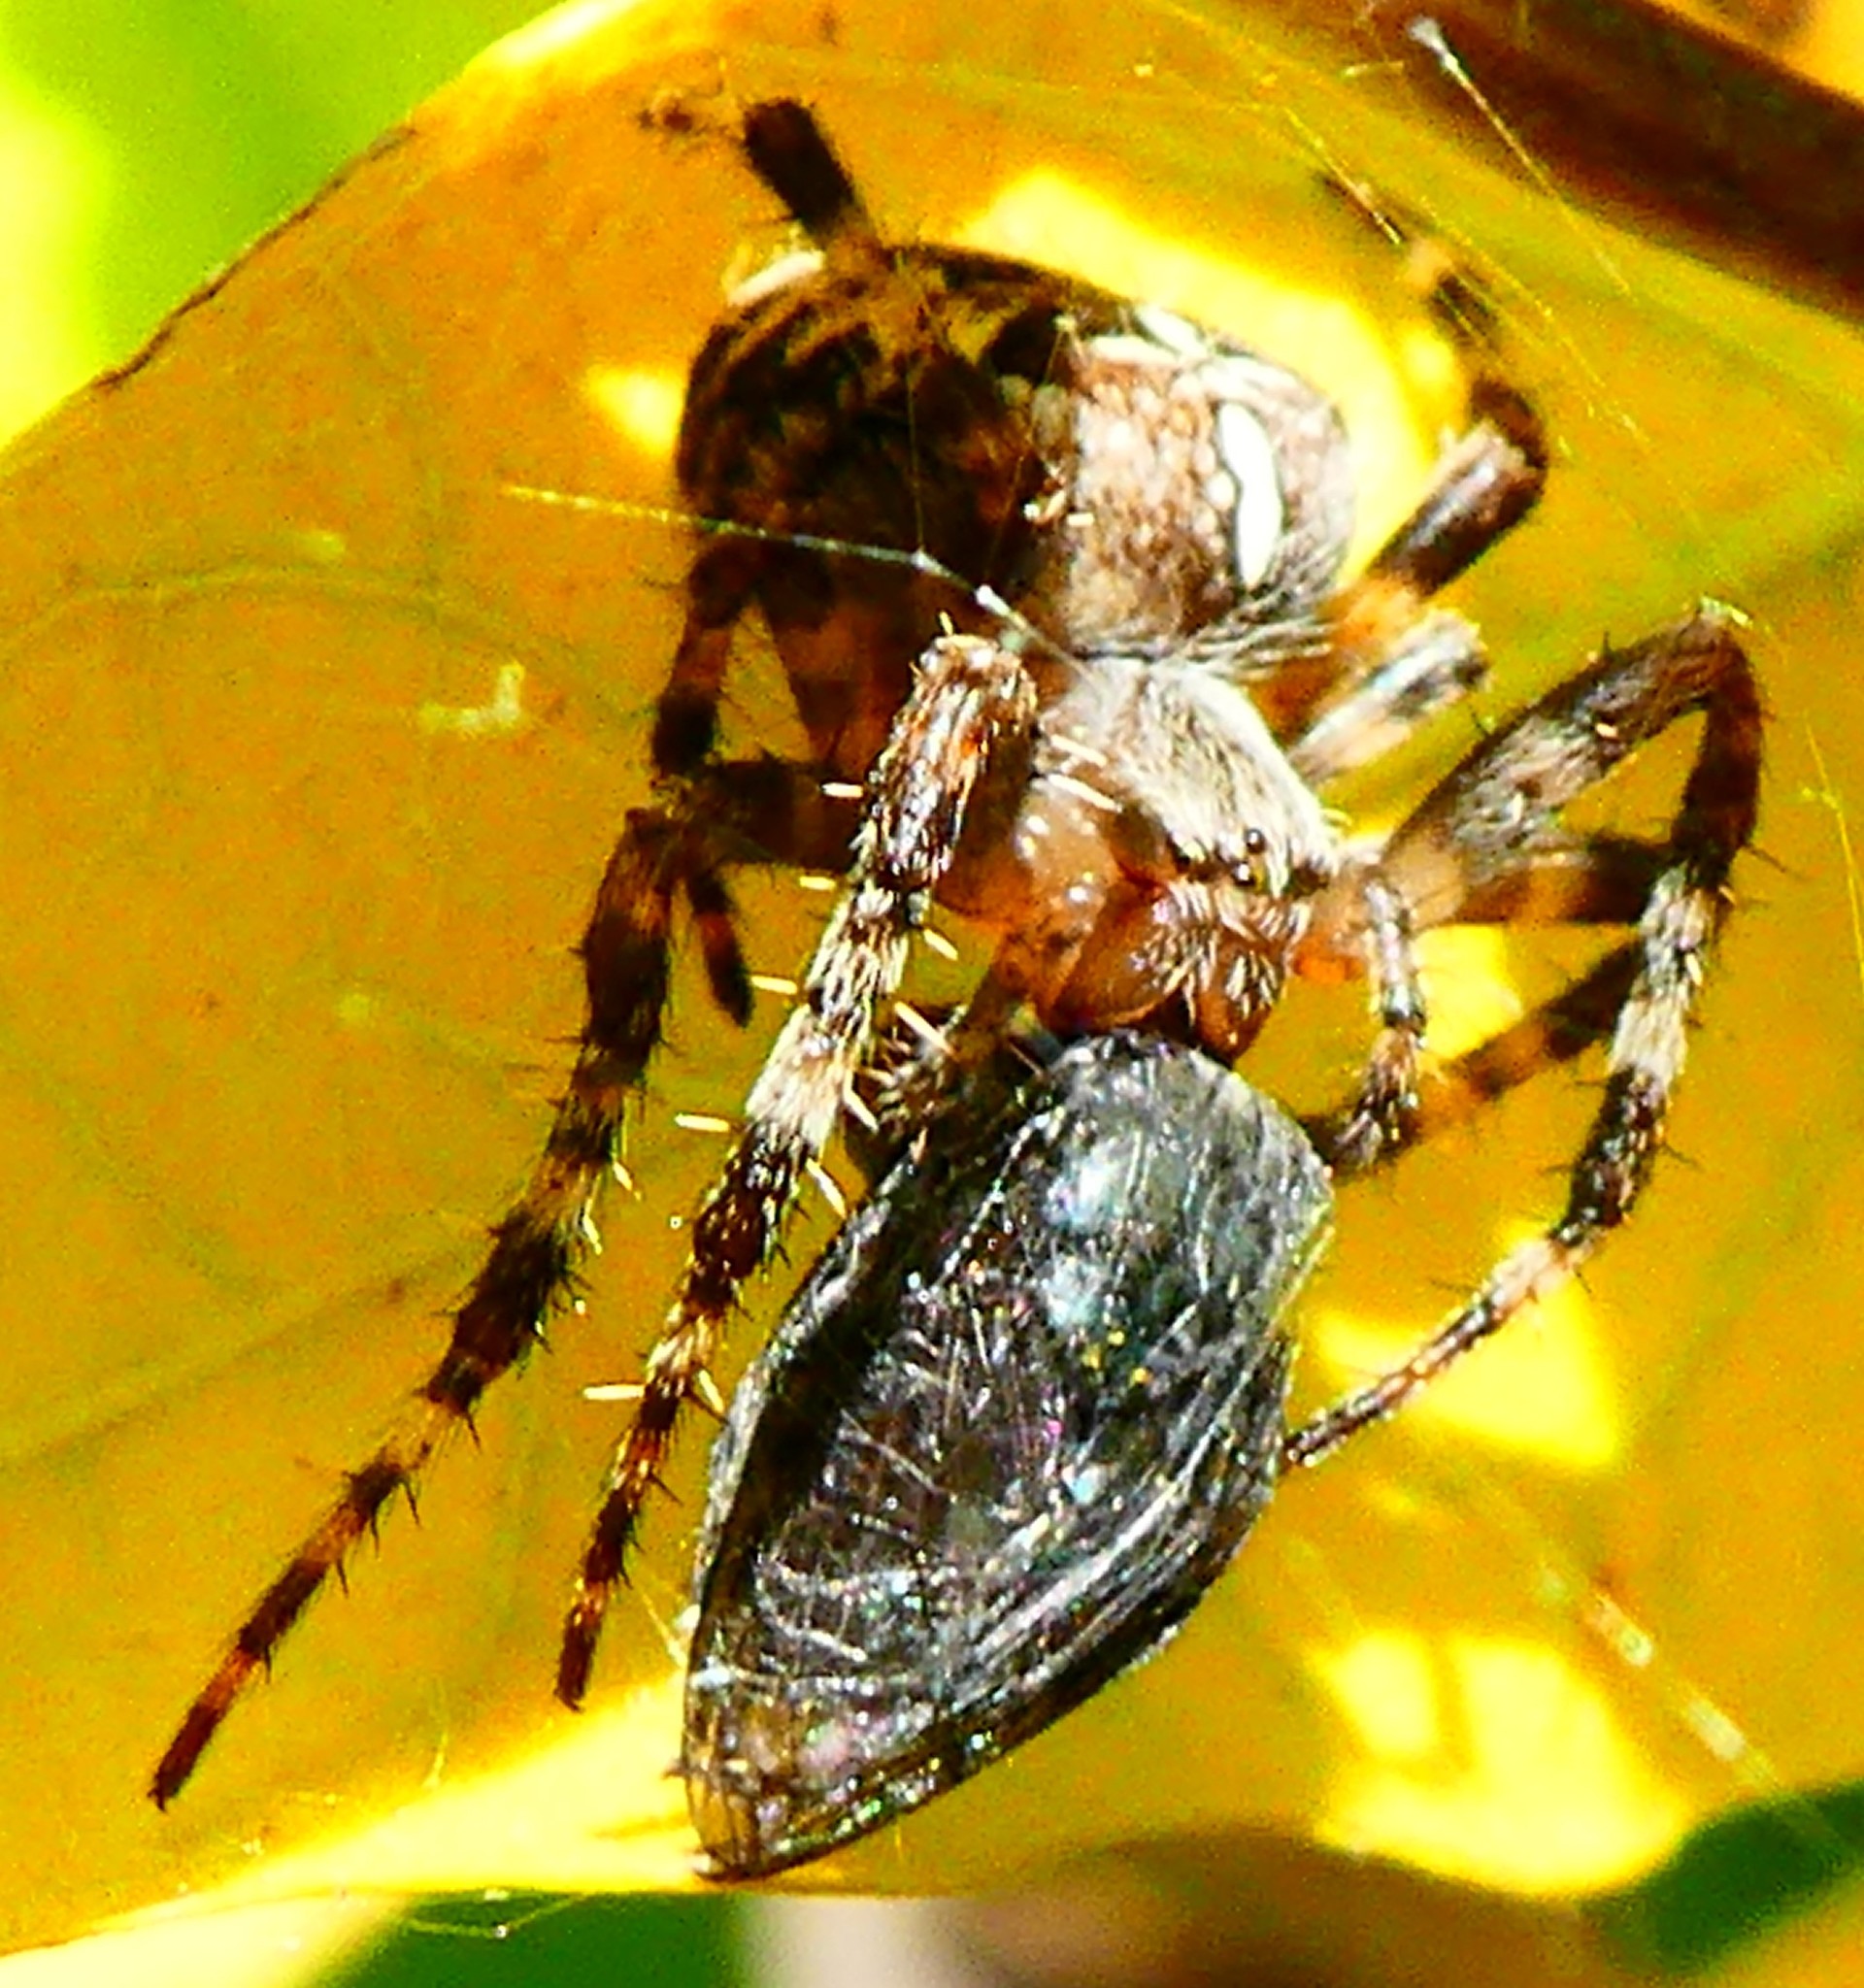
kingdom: Animalia
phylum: Arthropoda
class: Arachnida
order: Araneae
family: Araneidae
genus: Araneus
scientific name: Araneus diadematus
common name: Cross orbweaver
